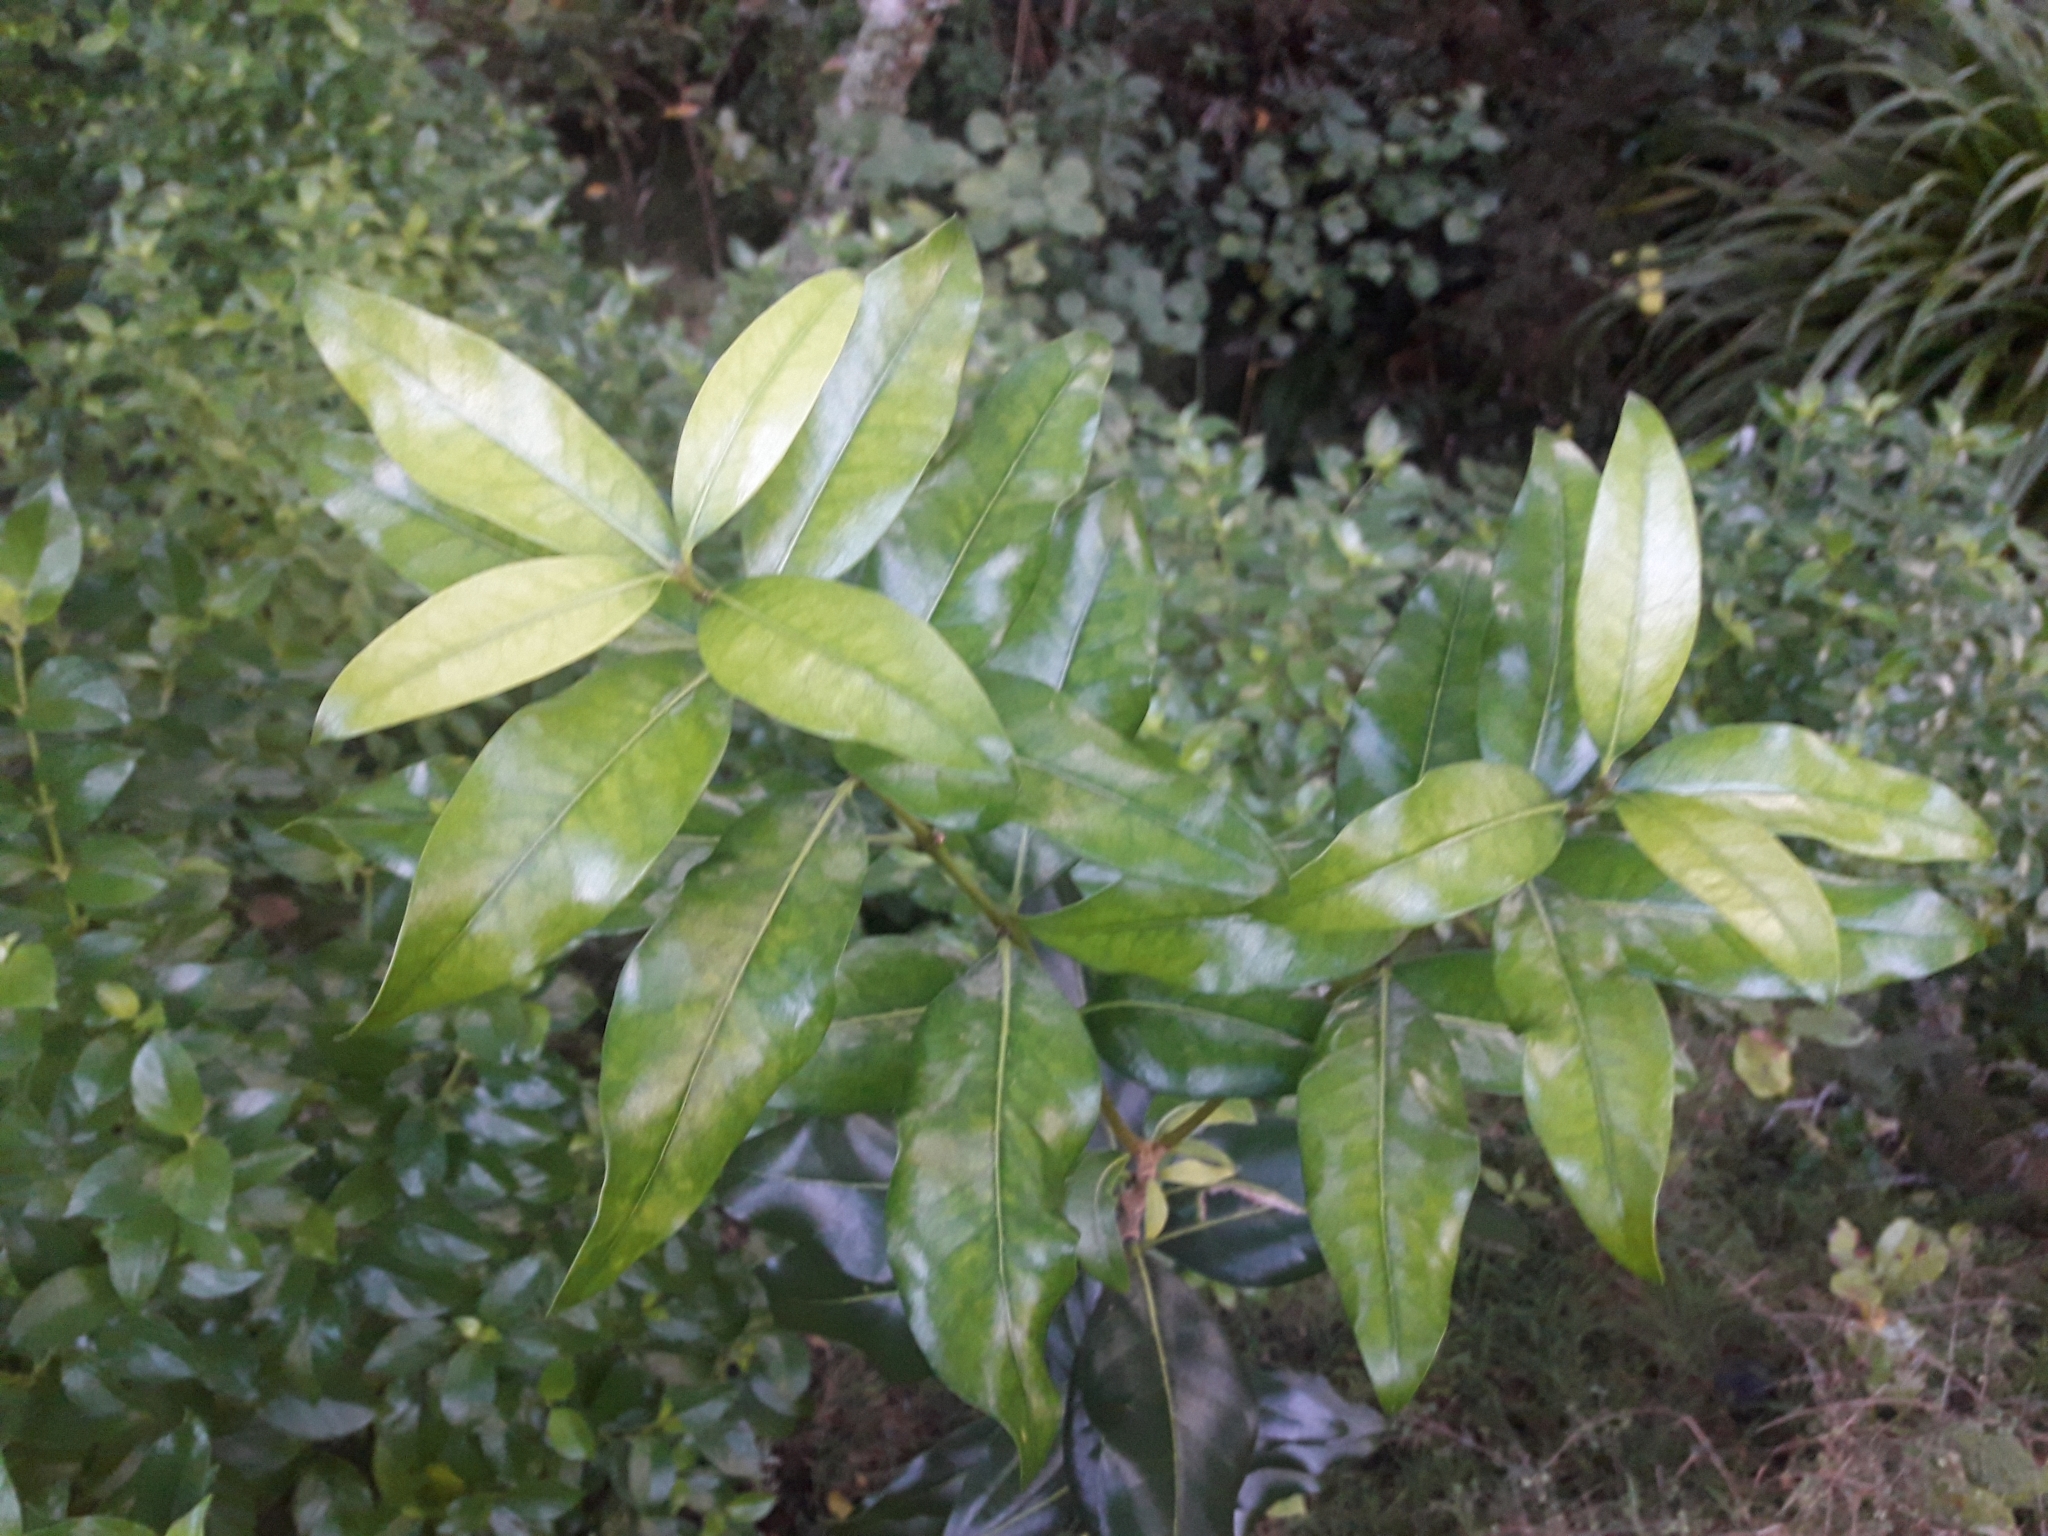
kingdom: Plantae
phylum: Tracheophyta
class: Magnoliopsida
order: Lamiales
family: Oleaceae
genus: Nestegis
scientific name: Nestegis apetala
